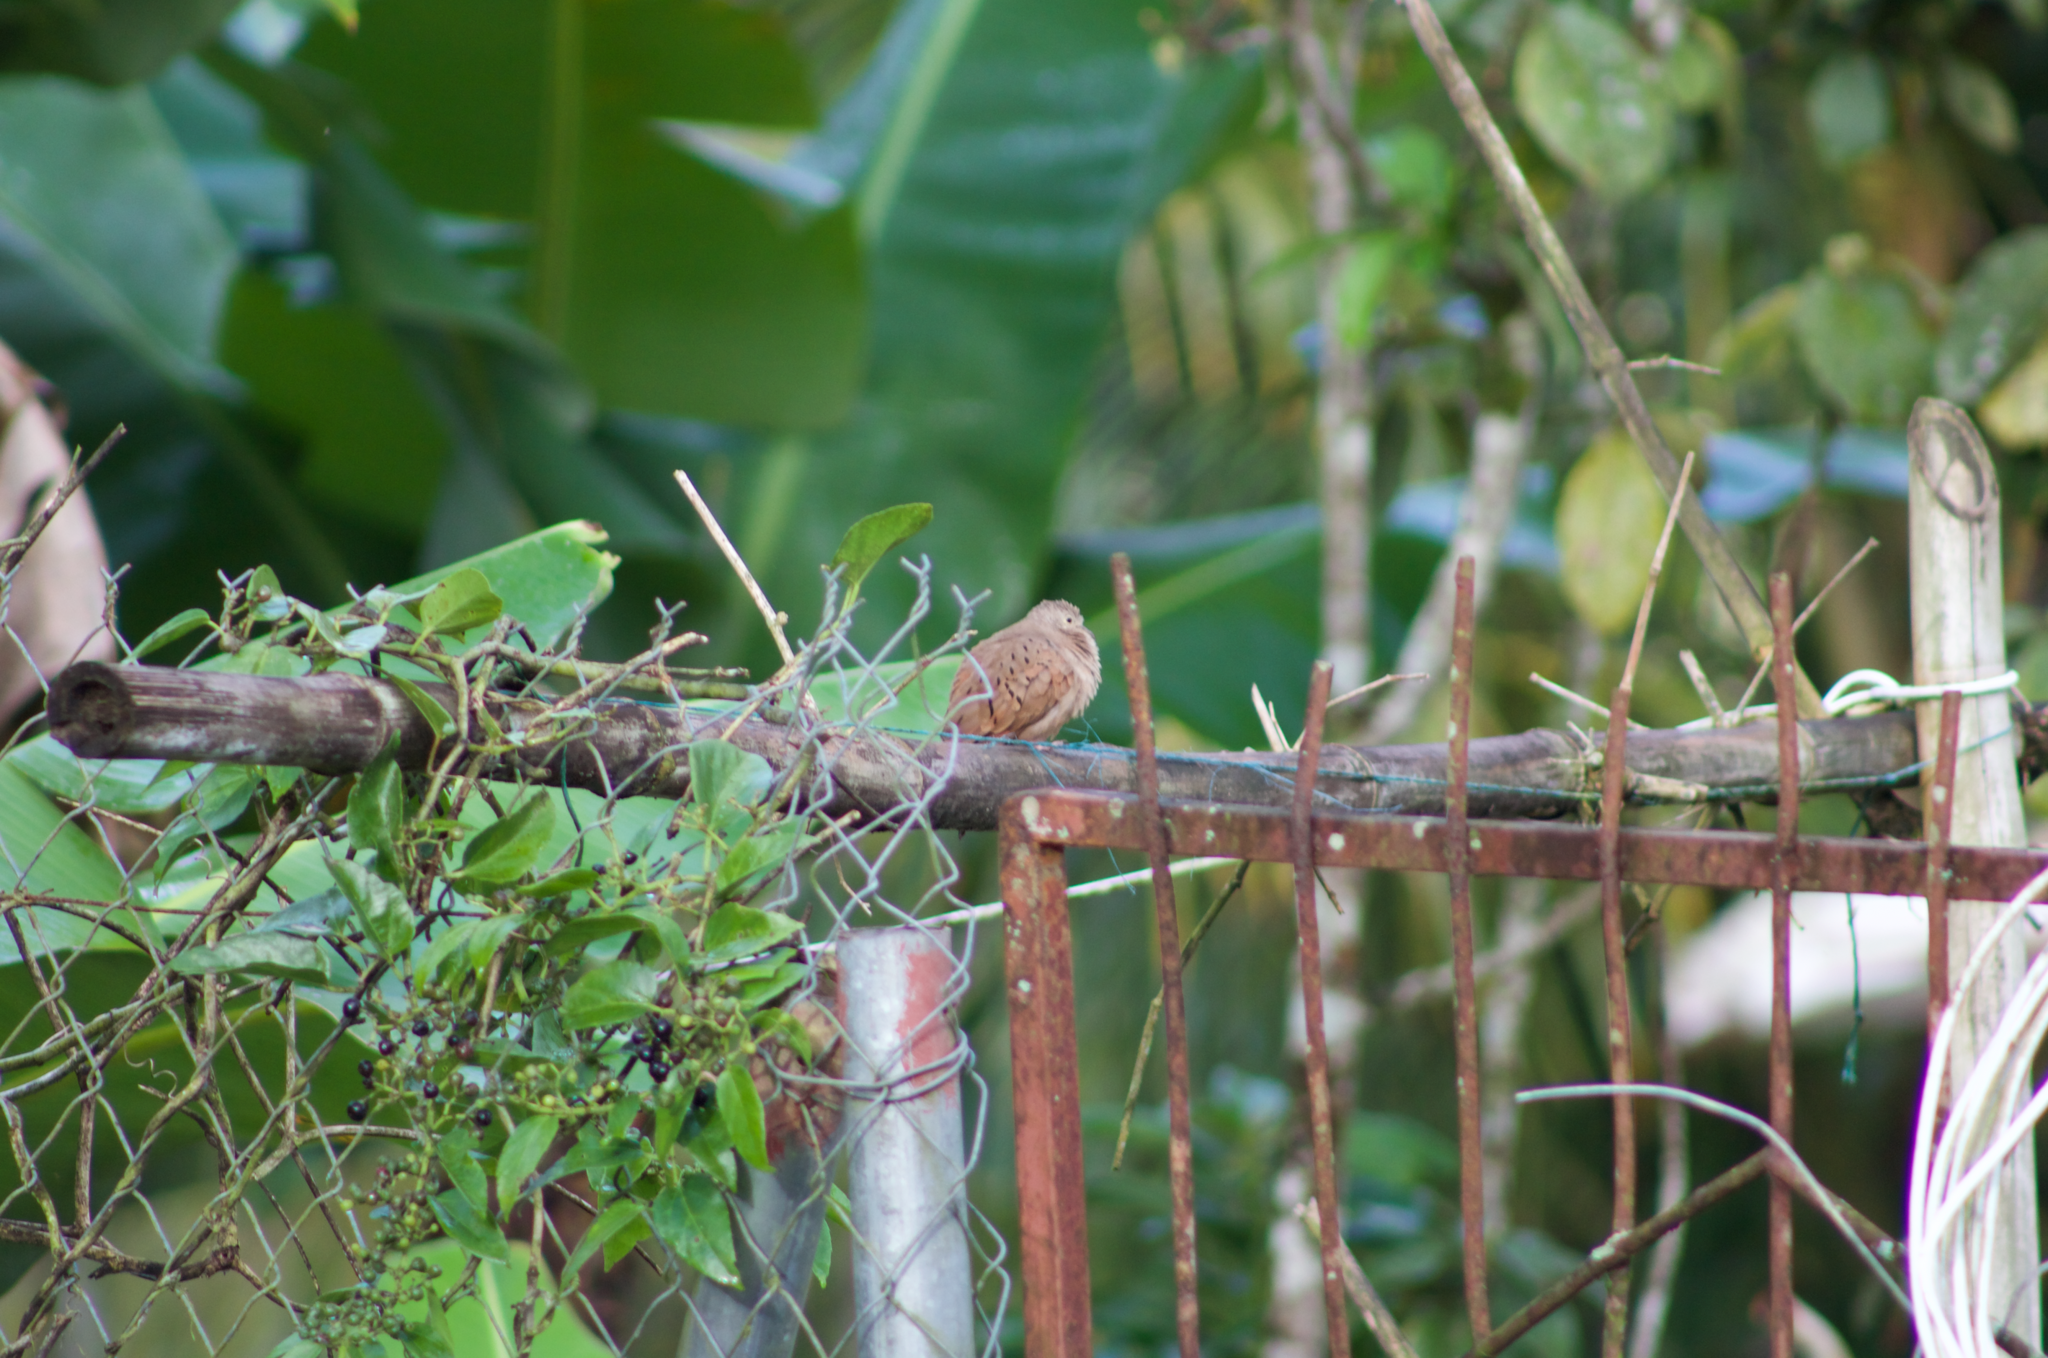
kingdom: Animalia
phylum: Chordata
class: Aves
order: Columbiformes
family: Columbidae
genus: Columbina
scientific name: Columbina talpacoti
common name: Ruddy ground dove
